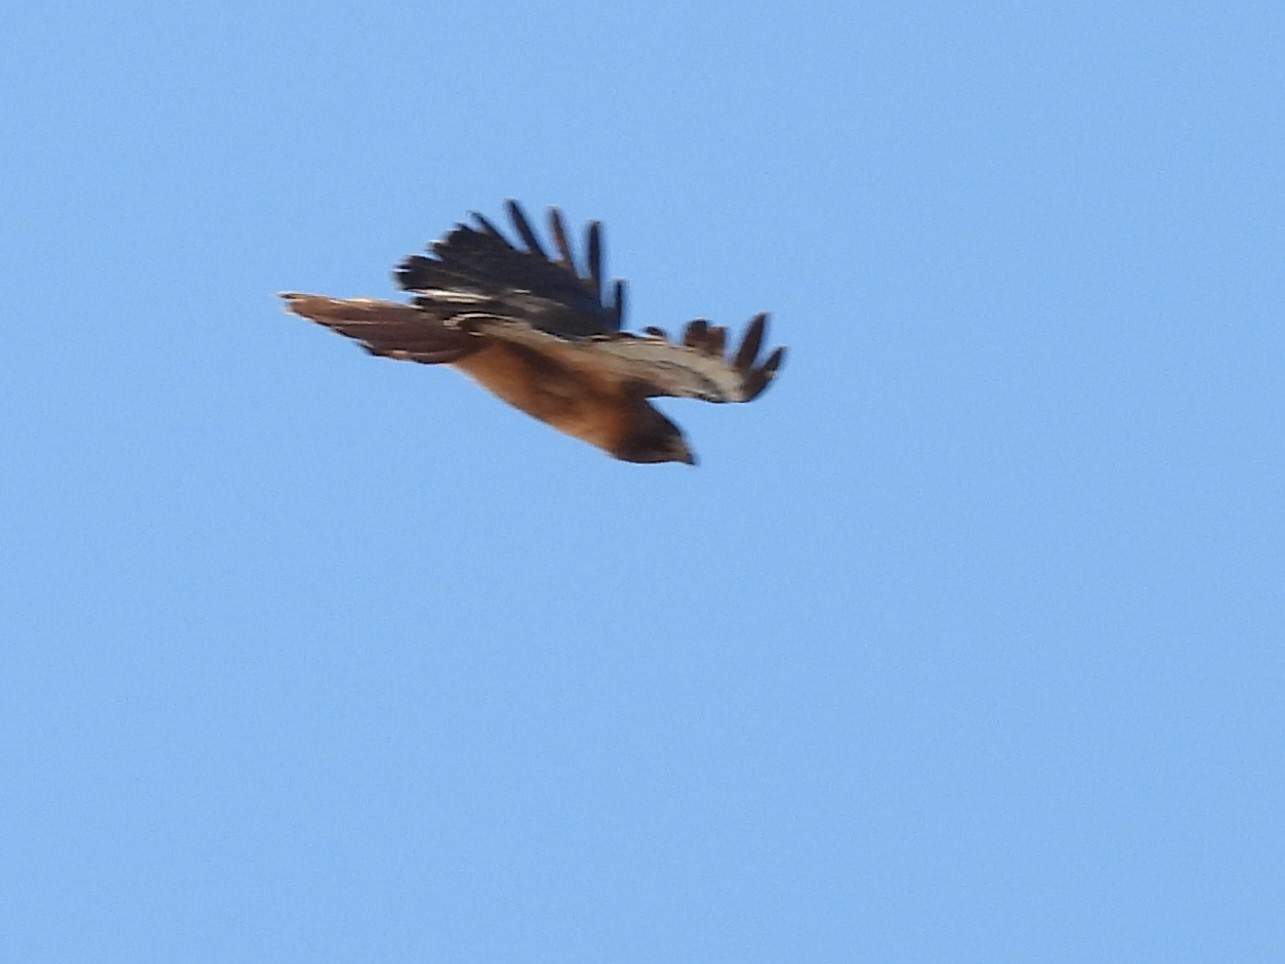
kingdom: Animalia
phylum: Chordata
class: Aves
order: Accipitriformes
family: Accipitridae
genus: Buteo
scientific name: Buteo jamaicensis
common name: Red-tailed hawk
